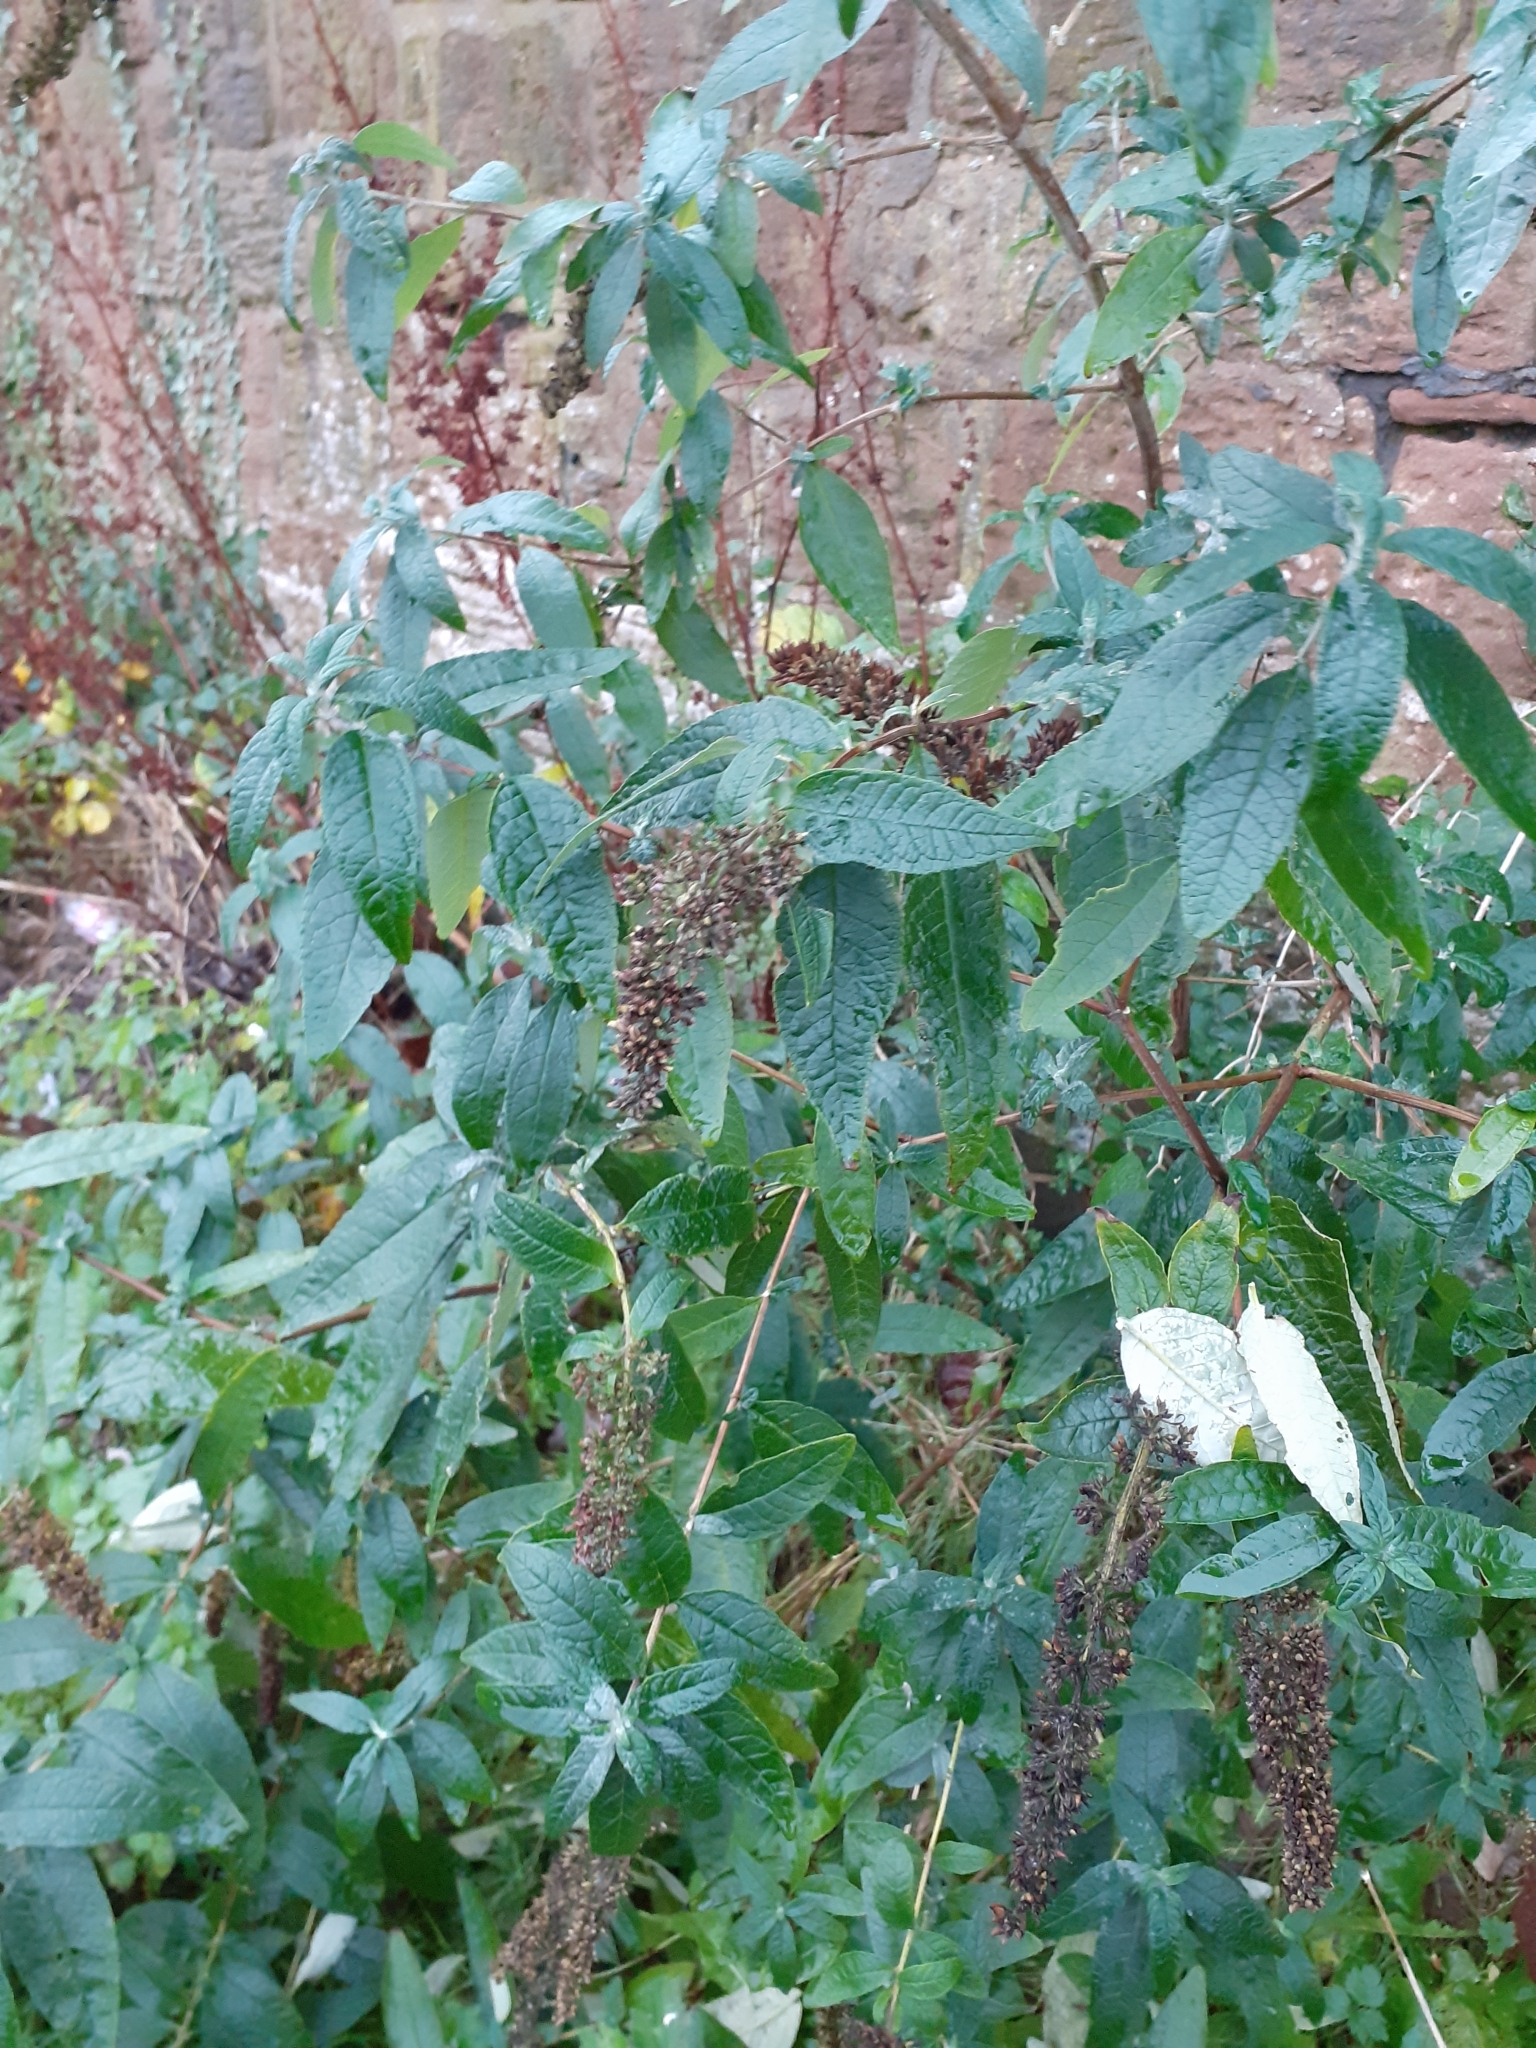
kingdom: Plantae
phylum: Tracheophyta
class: Magnoliopsida
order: Lamiales
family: Scrophulariaceae
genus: Buddleja
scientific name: Buddleja davidii
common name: Butterfly-bush
